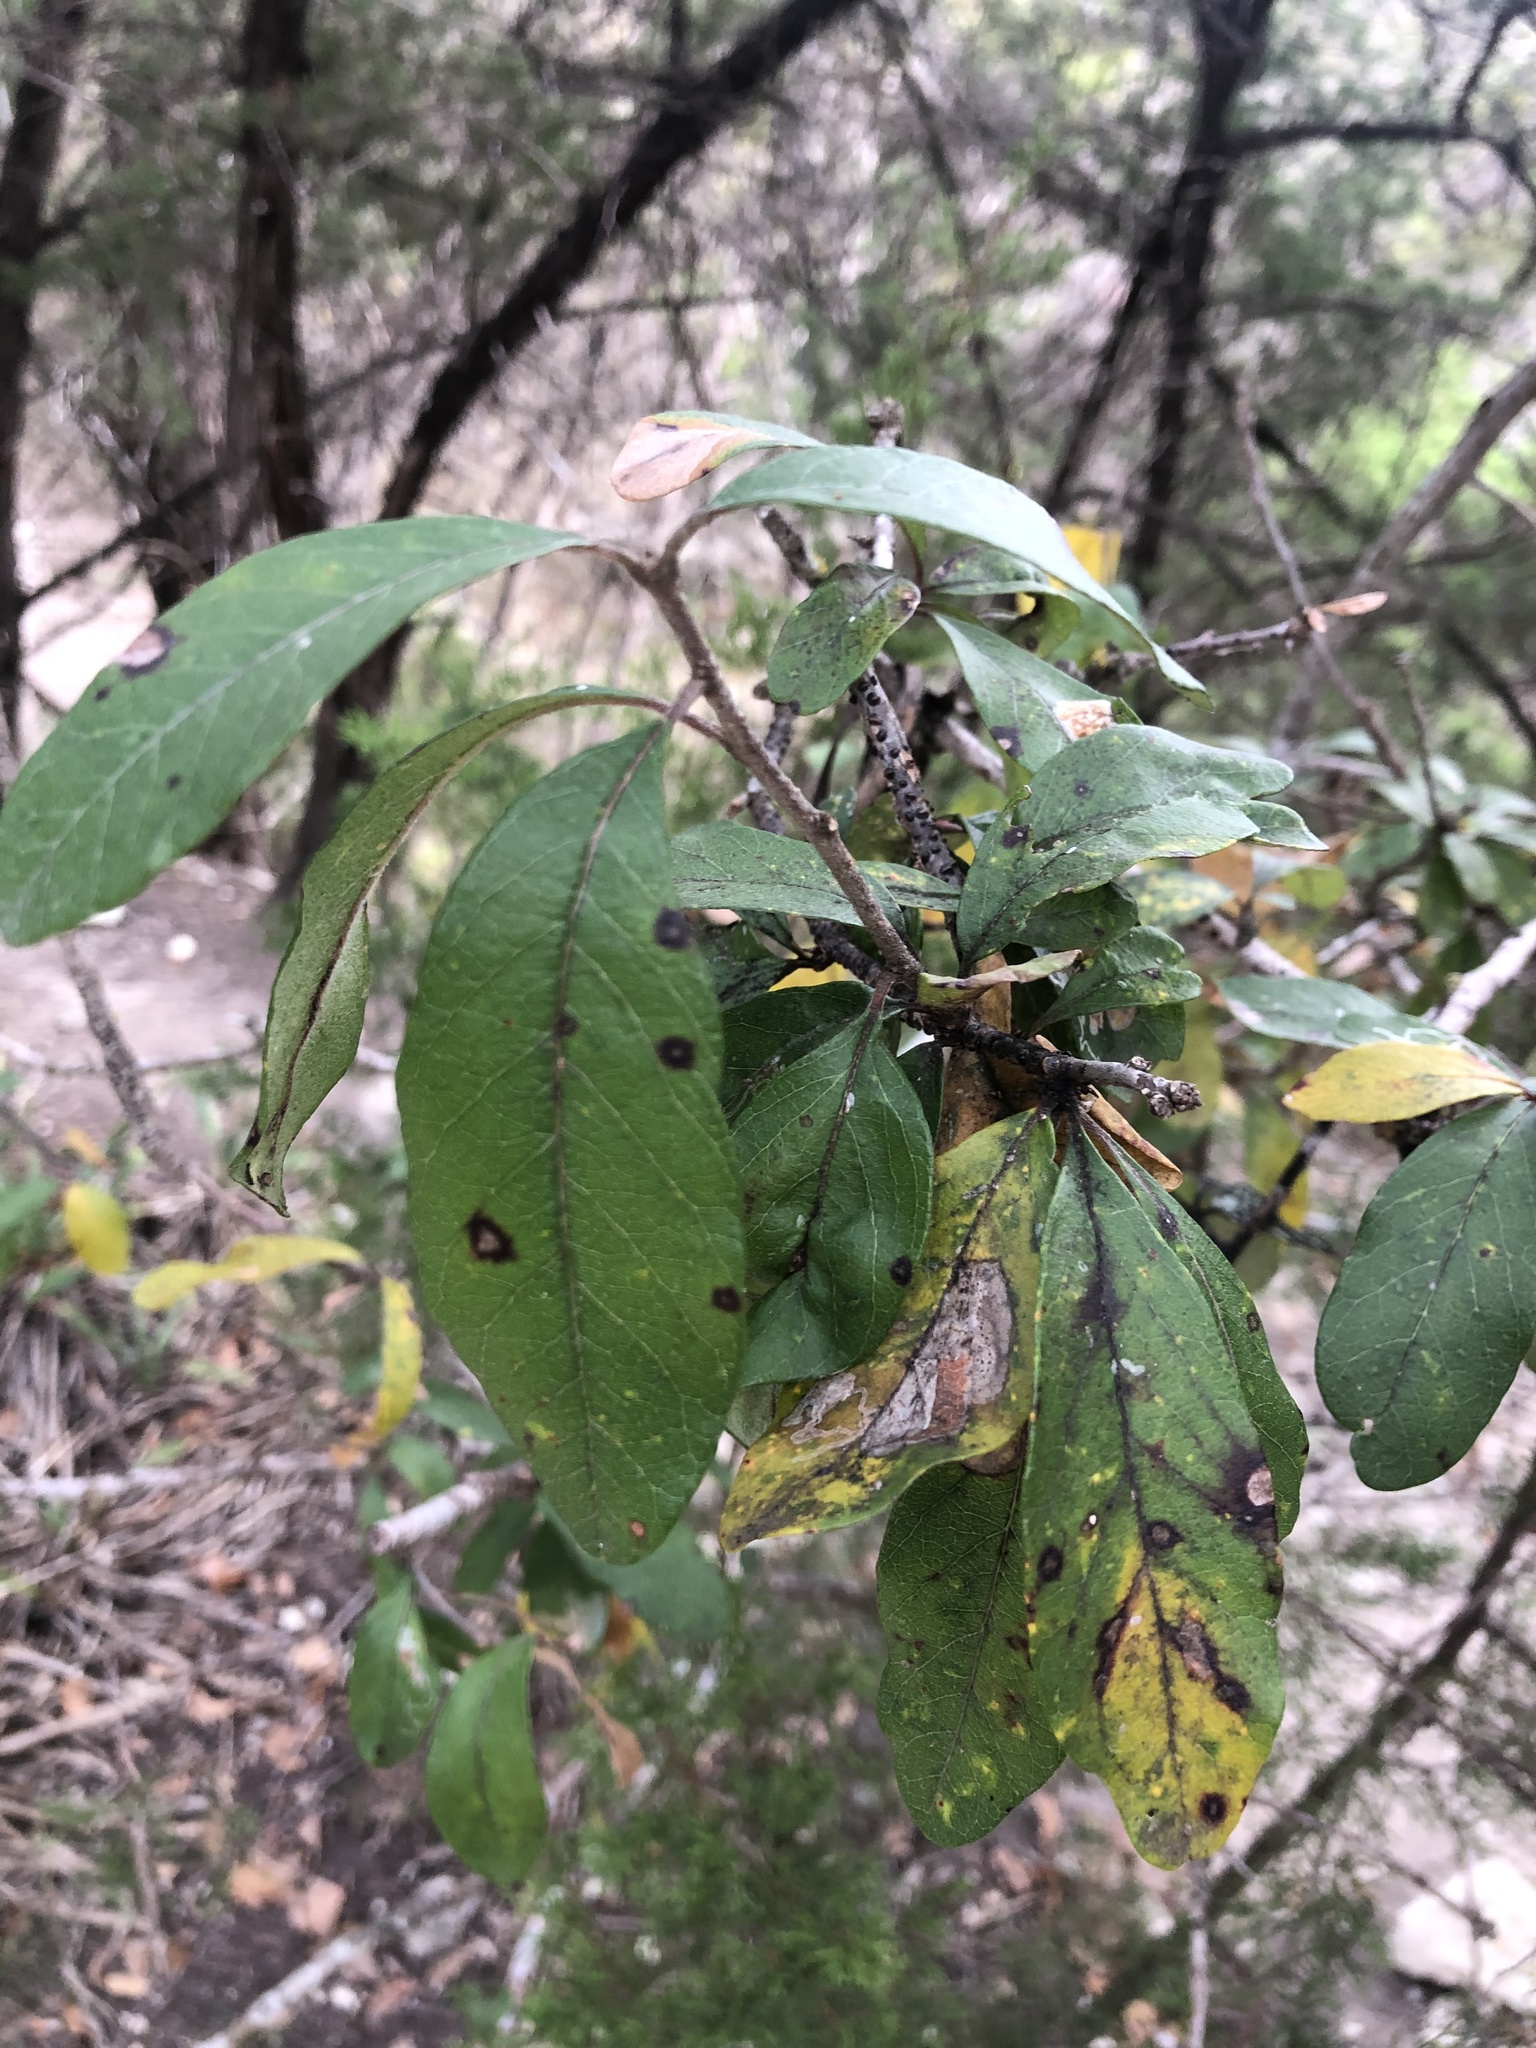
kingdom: Plantae
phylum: Tracheophyta
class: Magnoliopsida
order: Ericales
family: Sapotaceae
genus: Sideroxylon
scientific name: Sideroxylon lanuginosum
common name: Chittamwood
